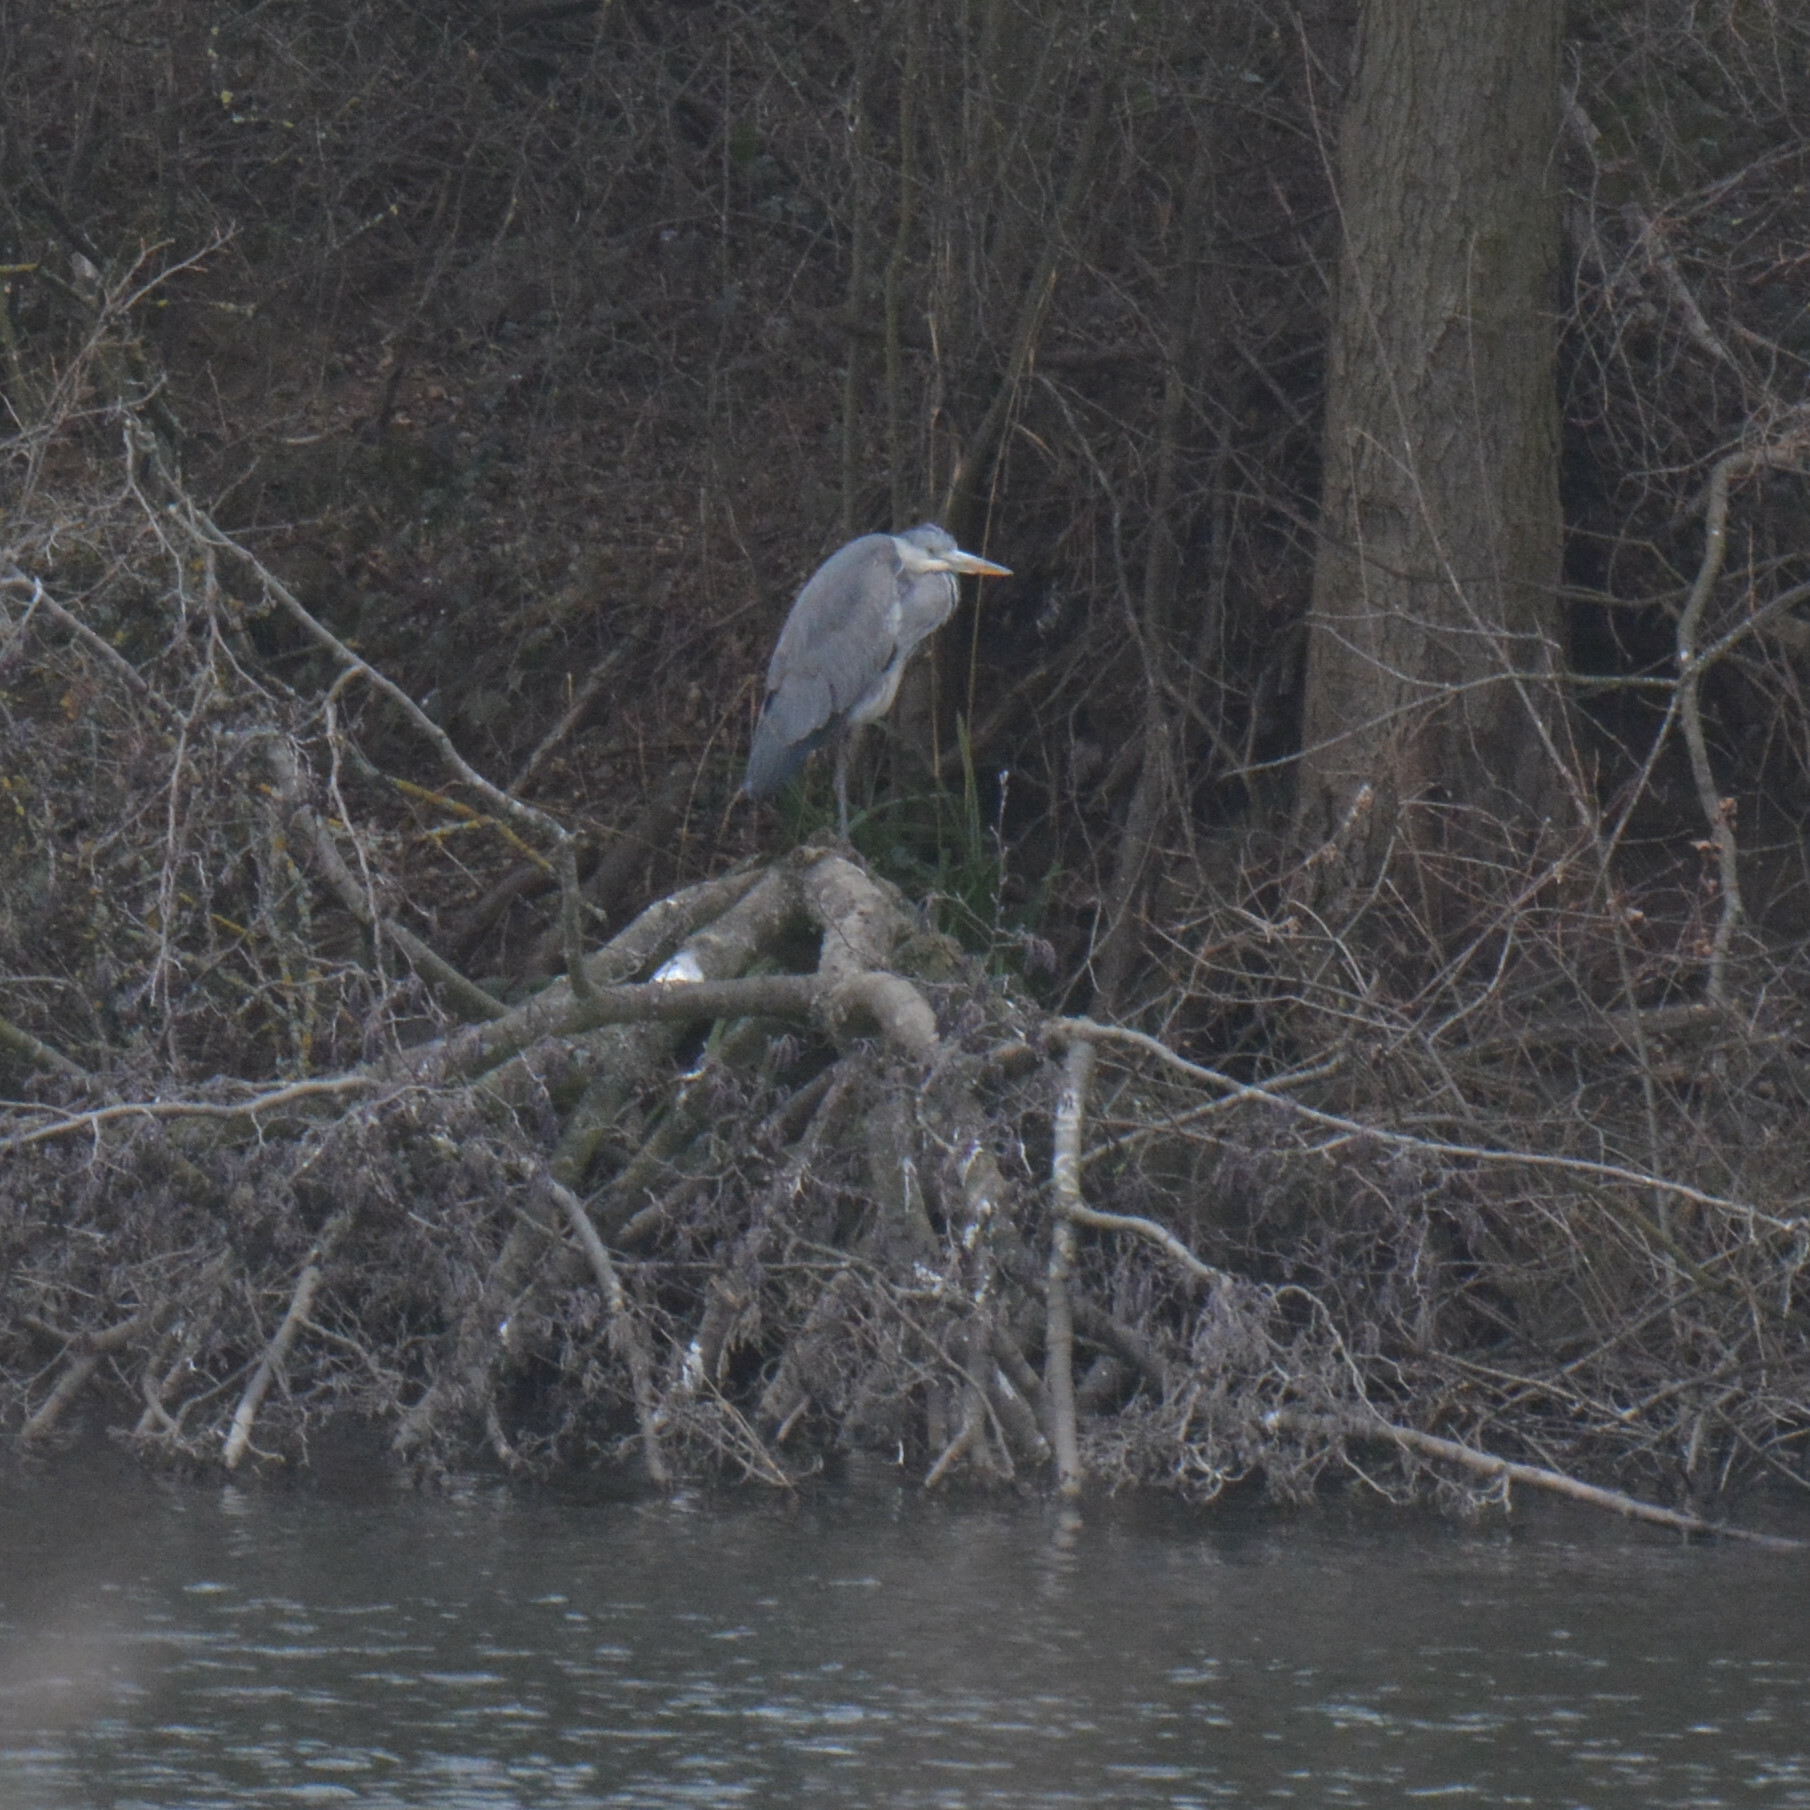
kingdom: Animalia
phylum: Chordata
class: Aves
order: Pelecaniformes
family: Ardeidae
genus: Ardea
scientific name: Ardea cinerea
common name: Grey heron
